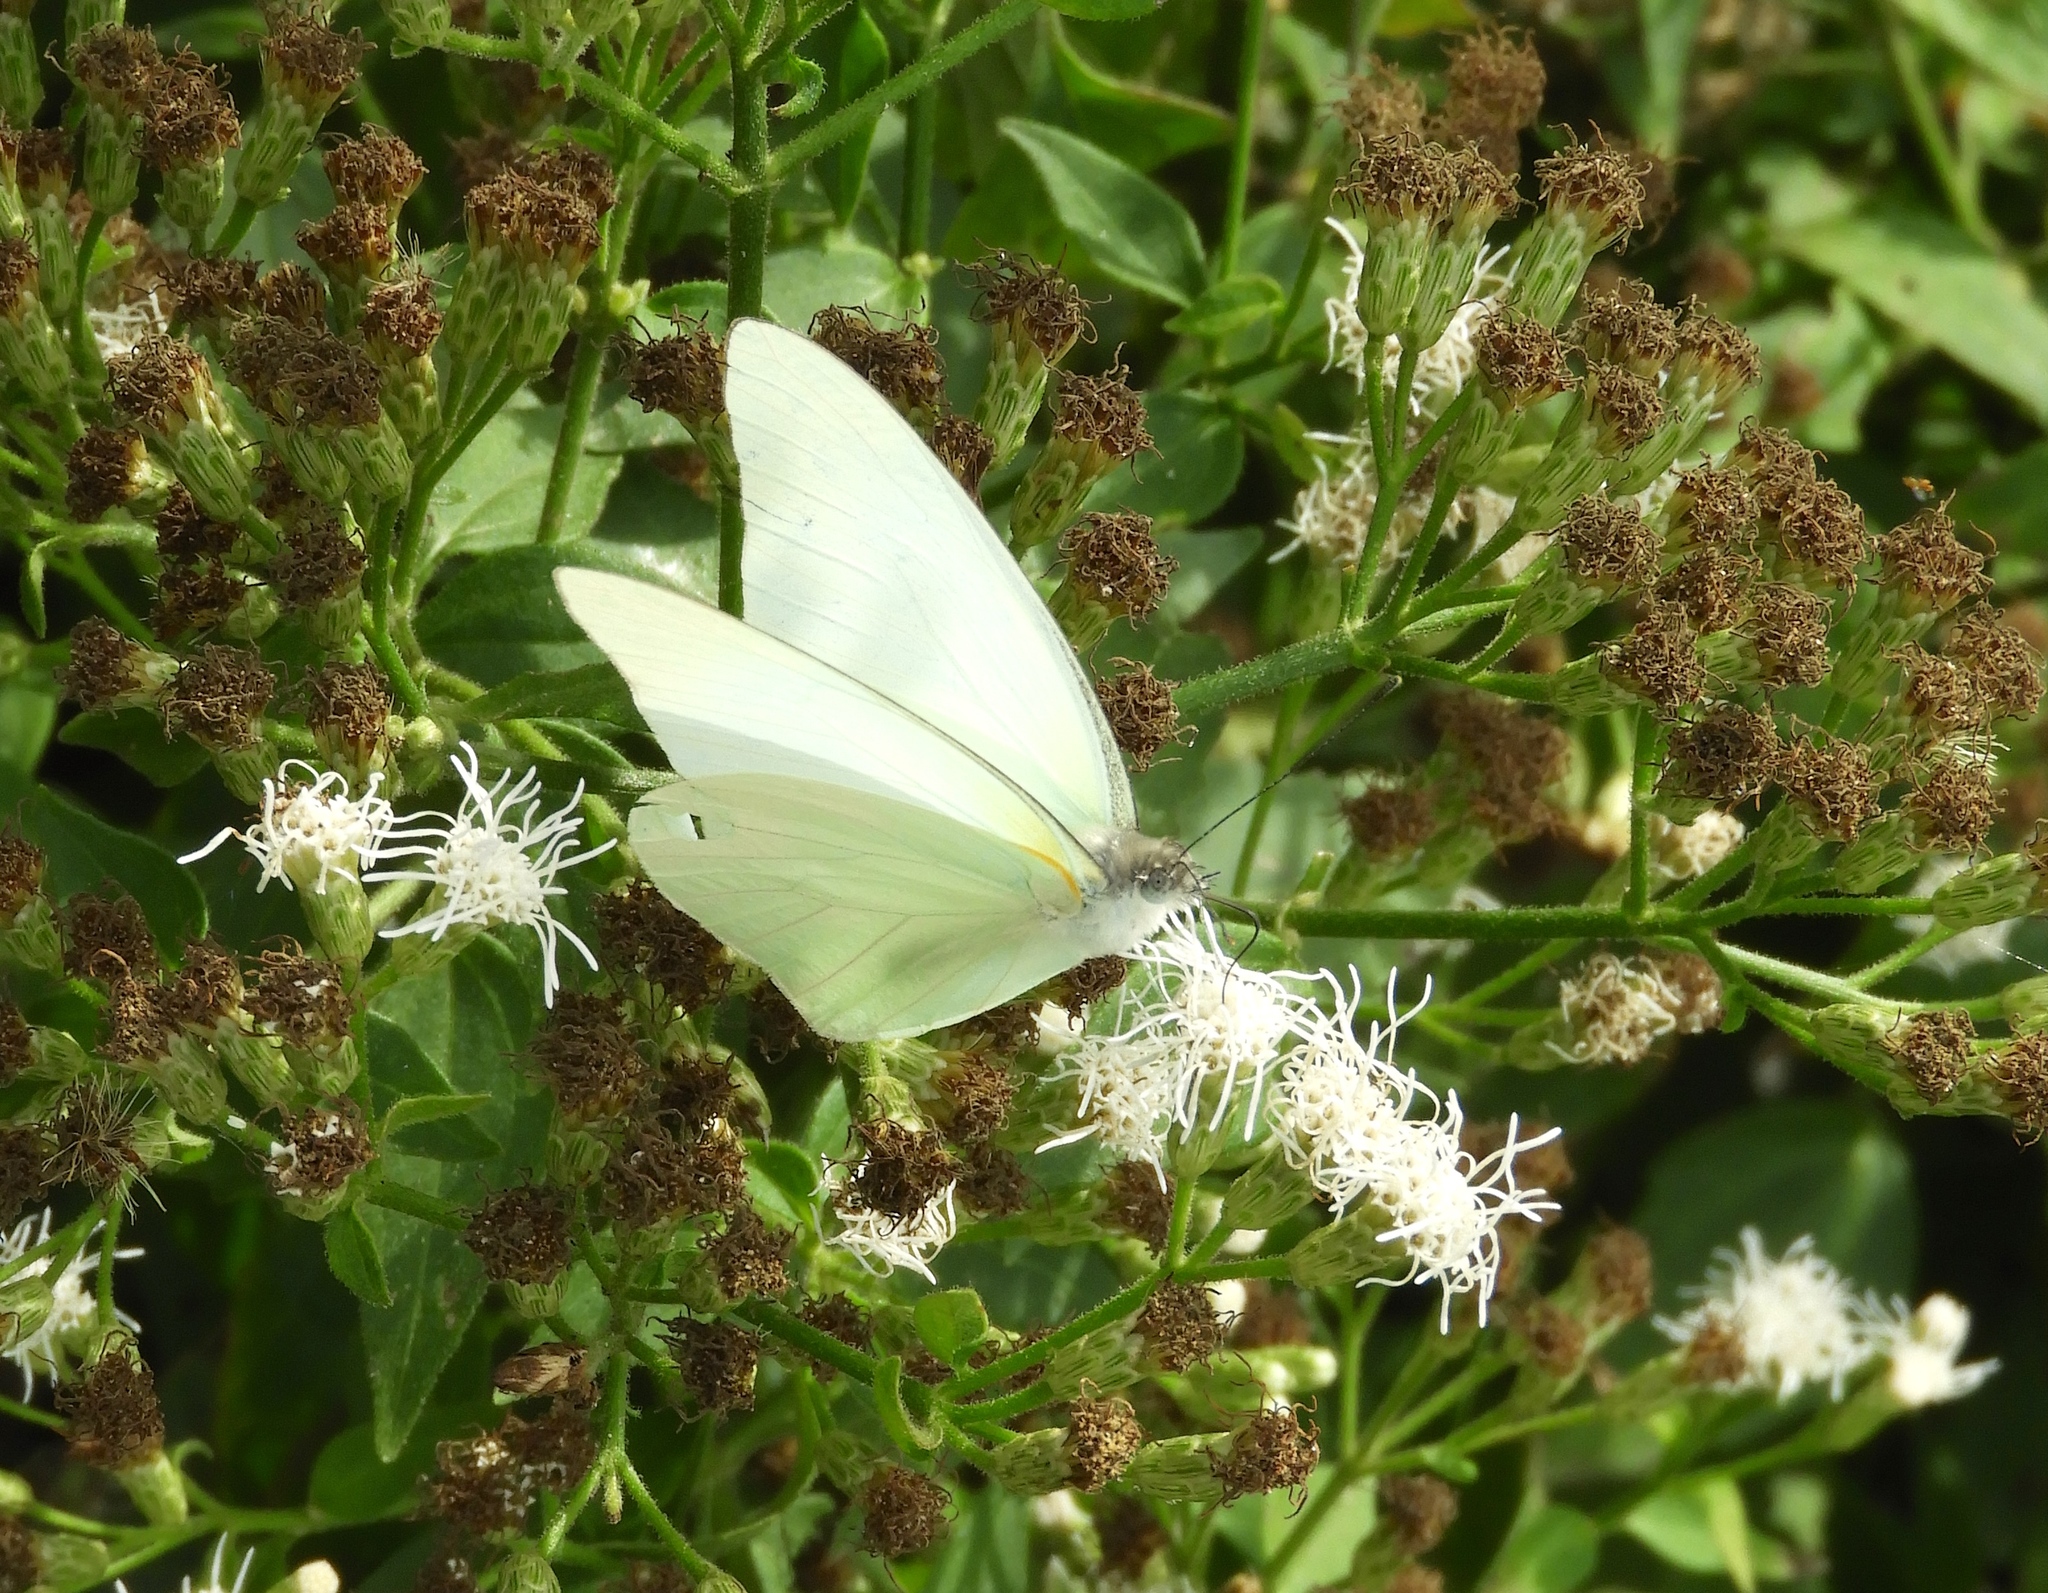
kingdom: Animalia
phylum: Arthropoda
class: Insecta
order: Lepidoptera
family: Pieridae
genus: Glutophrissa
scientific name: Glutophrissa drusilla
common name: Florida white
